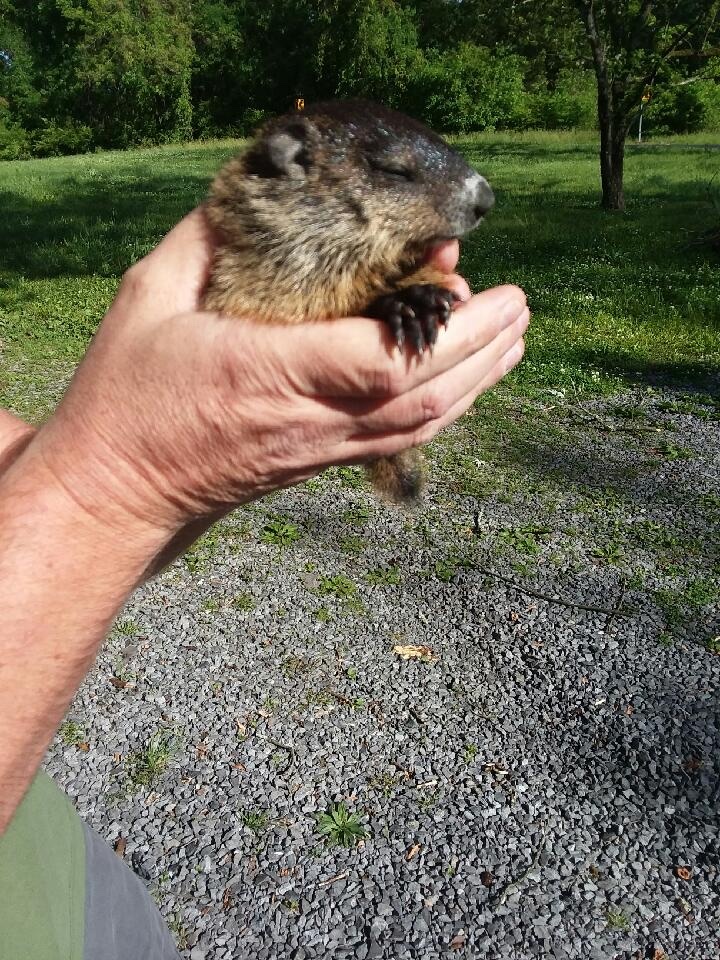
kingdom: Animalia
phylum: Chordata
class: Mammalia
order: Rodentia
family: Sciuridae
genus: Marmota
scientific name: Marmota monax
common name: Groundhog
